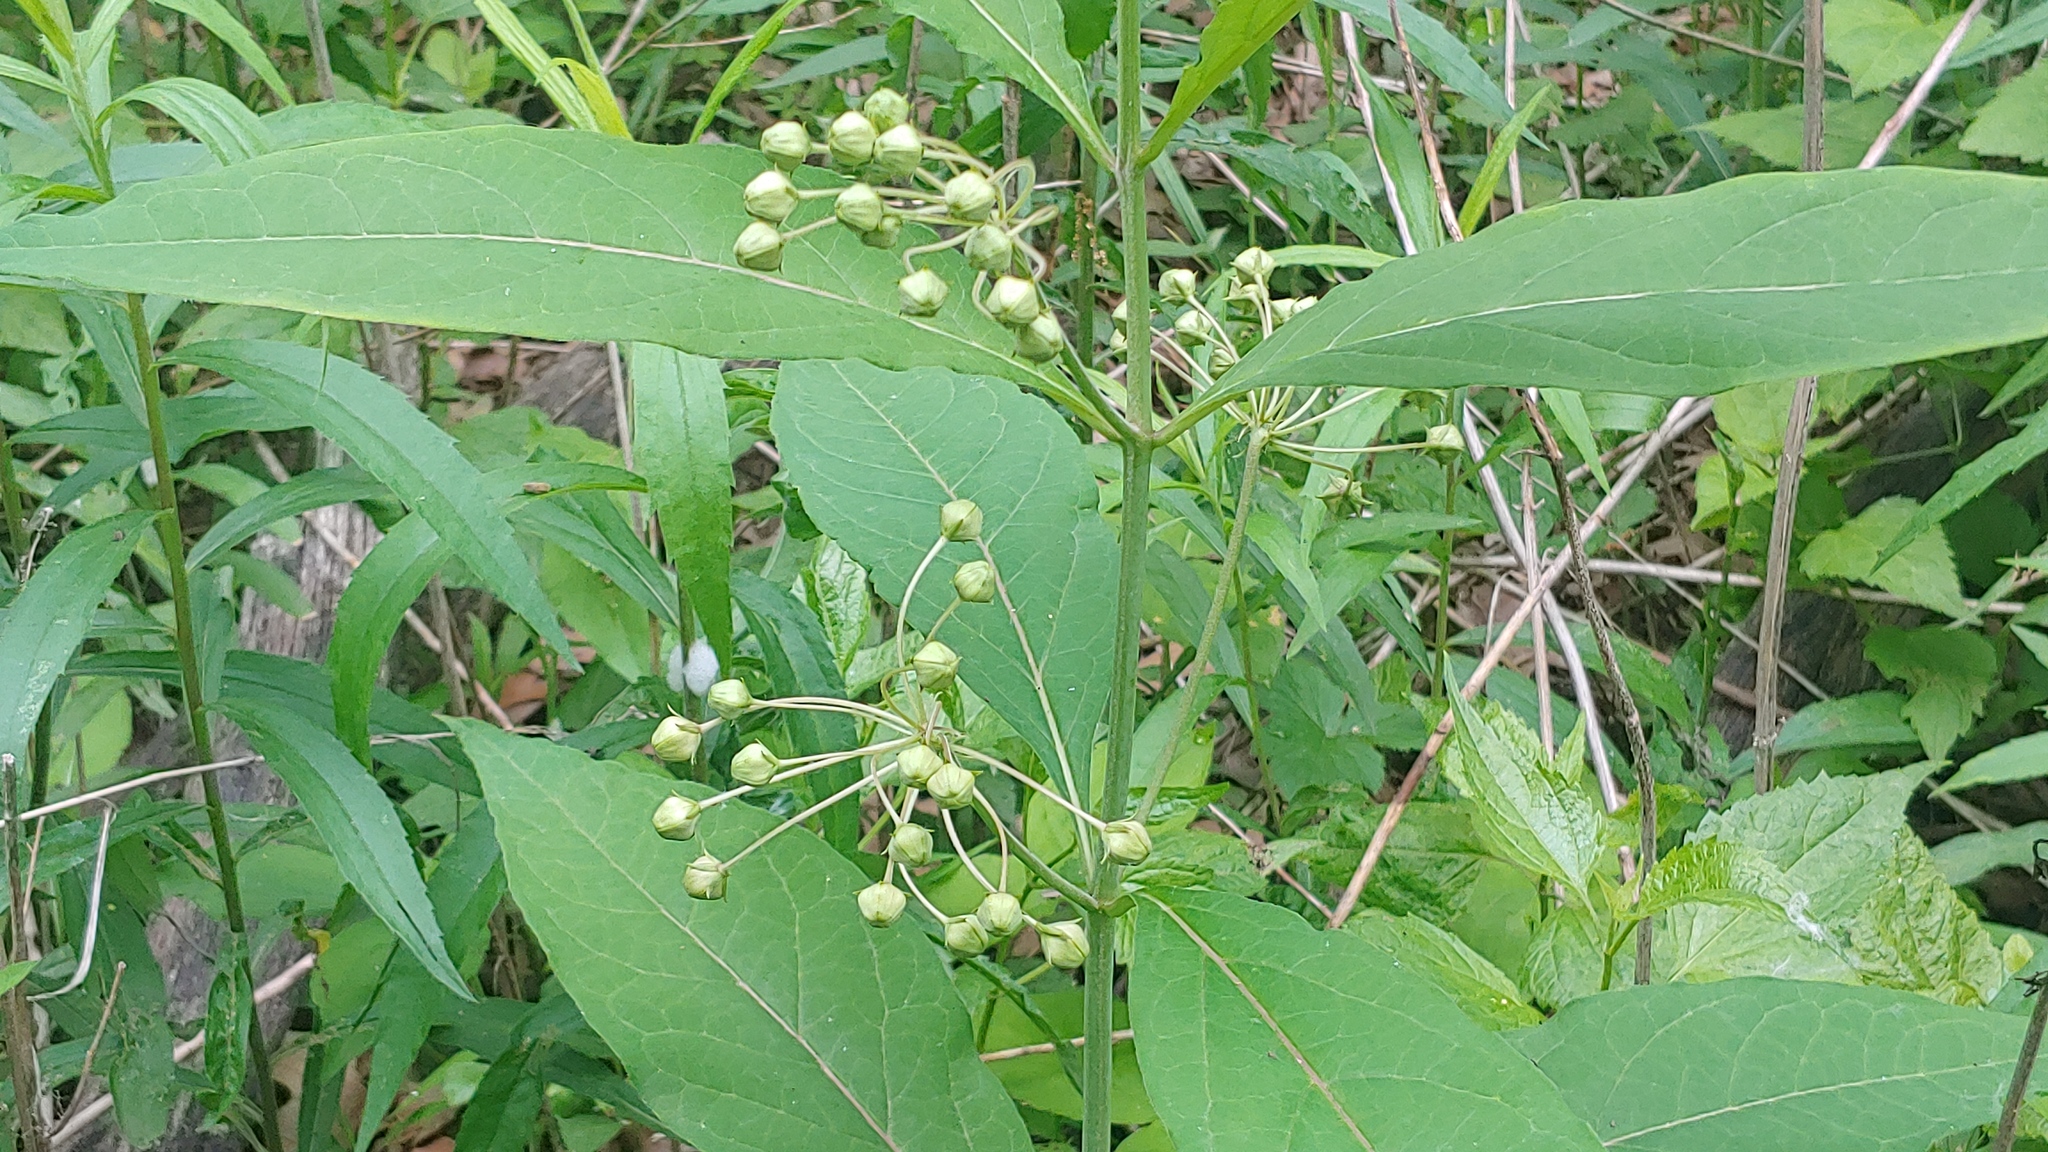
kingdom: Plantae
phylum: Tracheophyta
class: Magnoliopsida
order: Gentianales
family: Apocynaceae
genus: Asclepias
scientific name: Asclepias exaltata
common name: Poke milkweed
